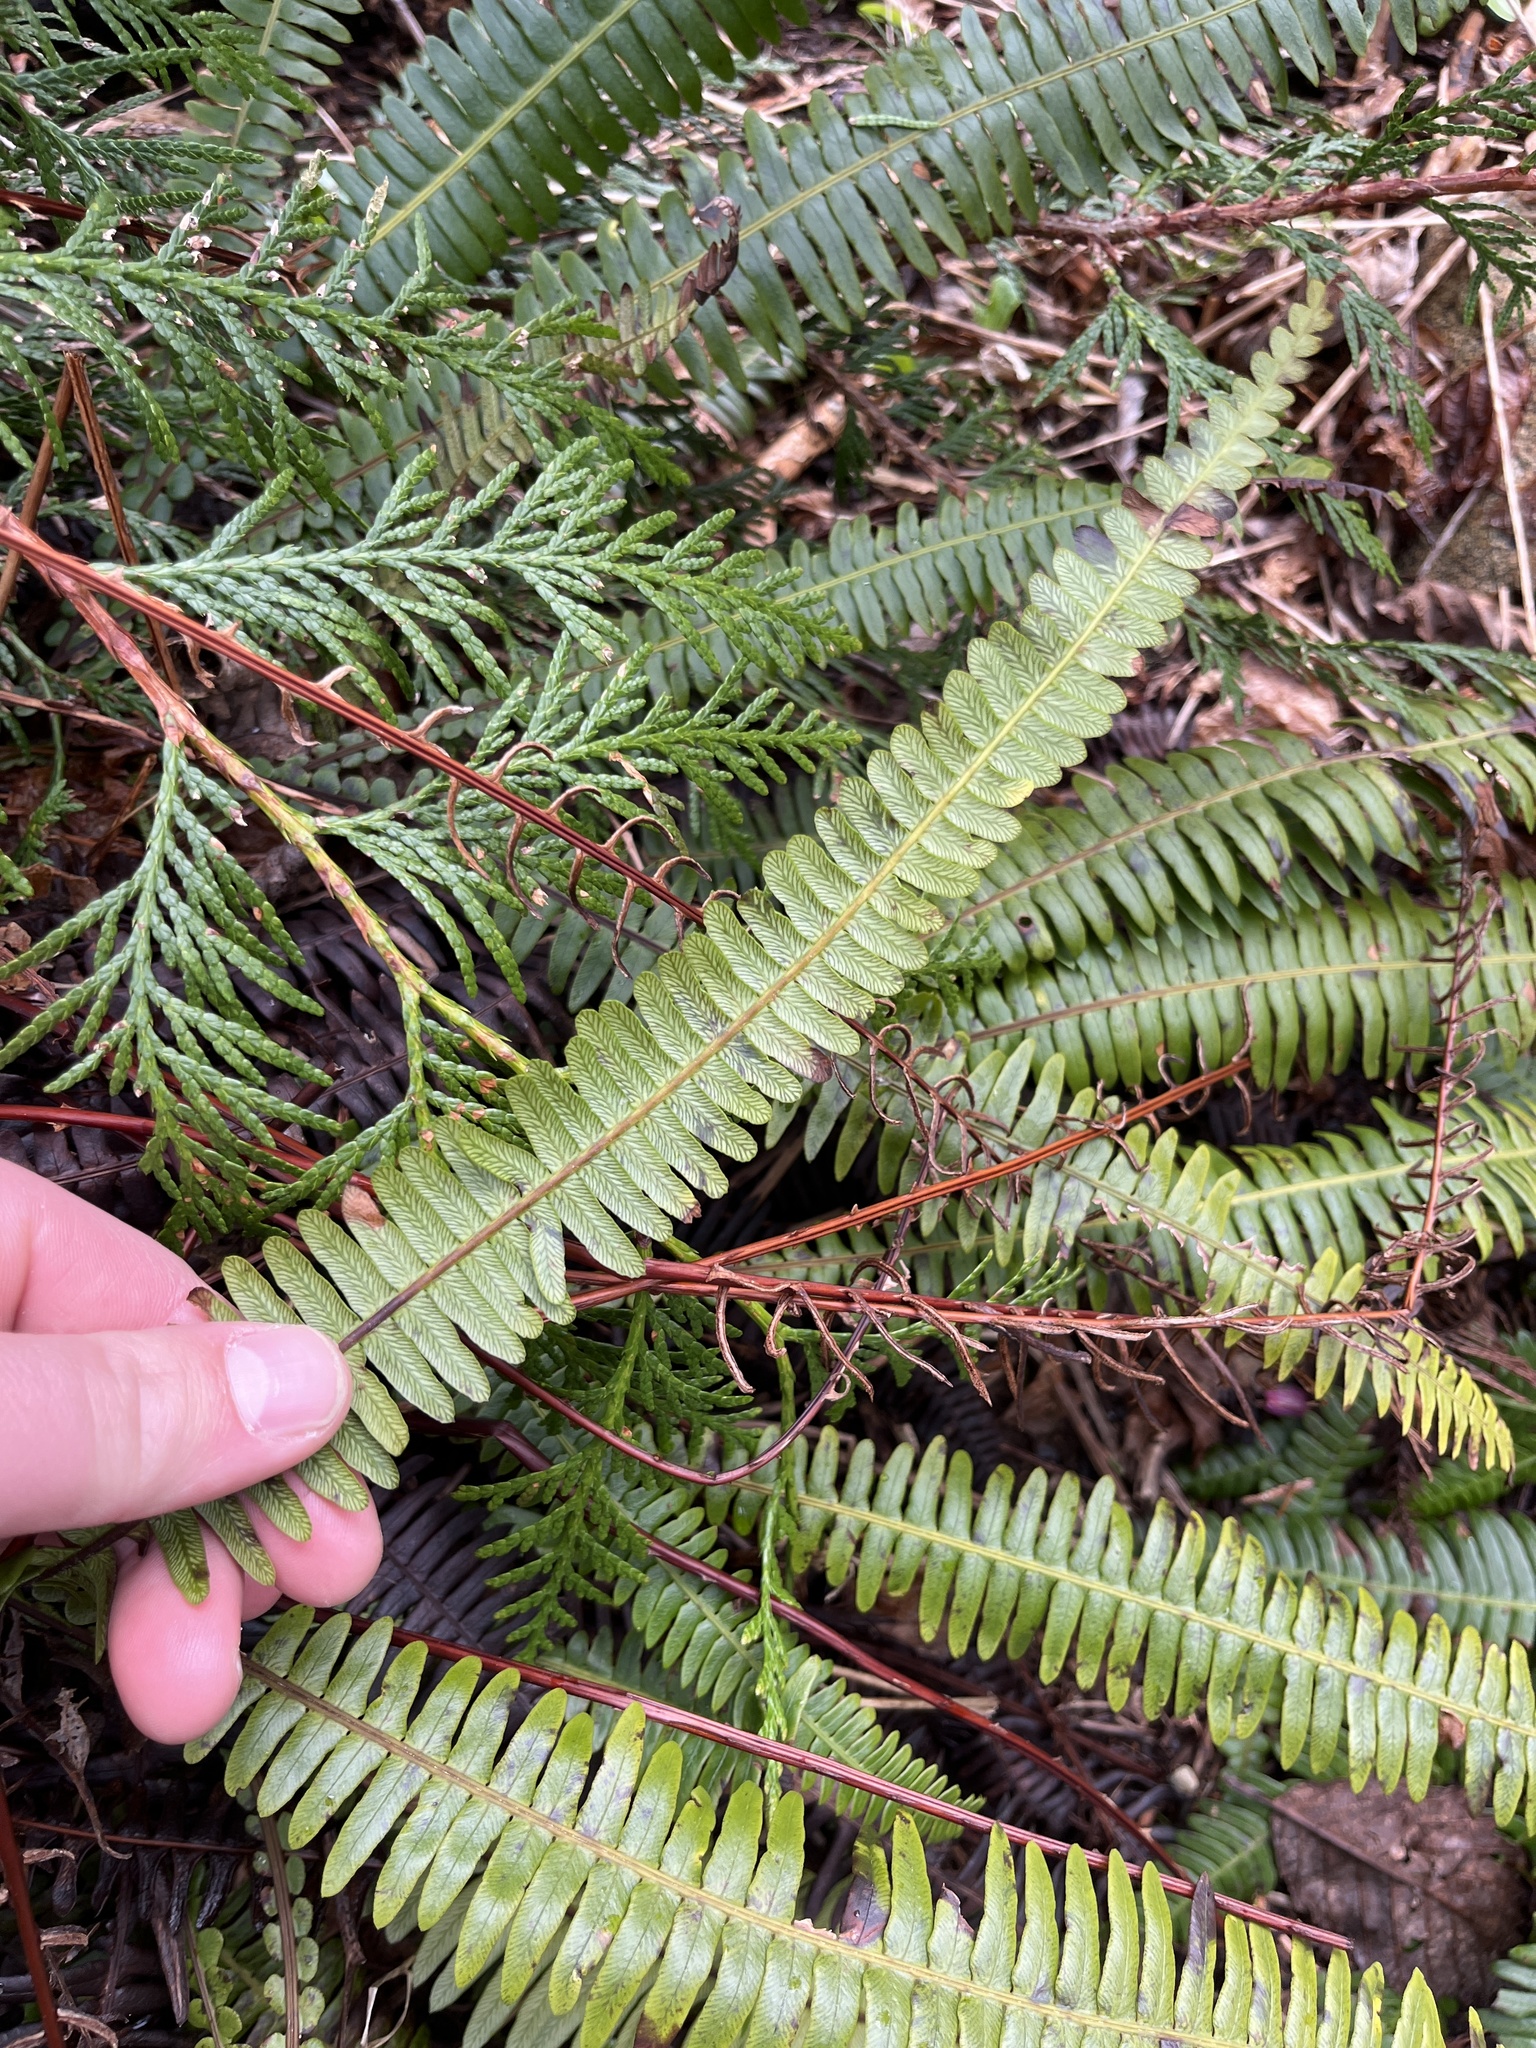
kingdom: Plantae
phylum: Tracheophyta
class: Polypodiopsida
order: Polypodiales
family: Blechnaceae
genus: Struthiopteris
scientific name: Struthiopteris spicant
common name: Deer fern
